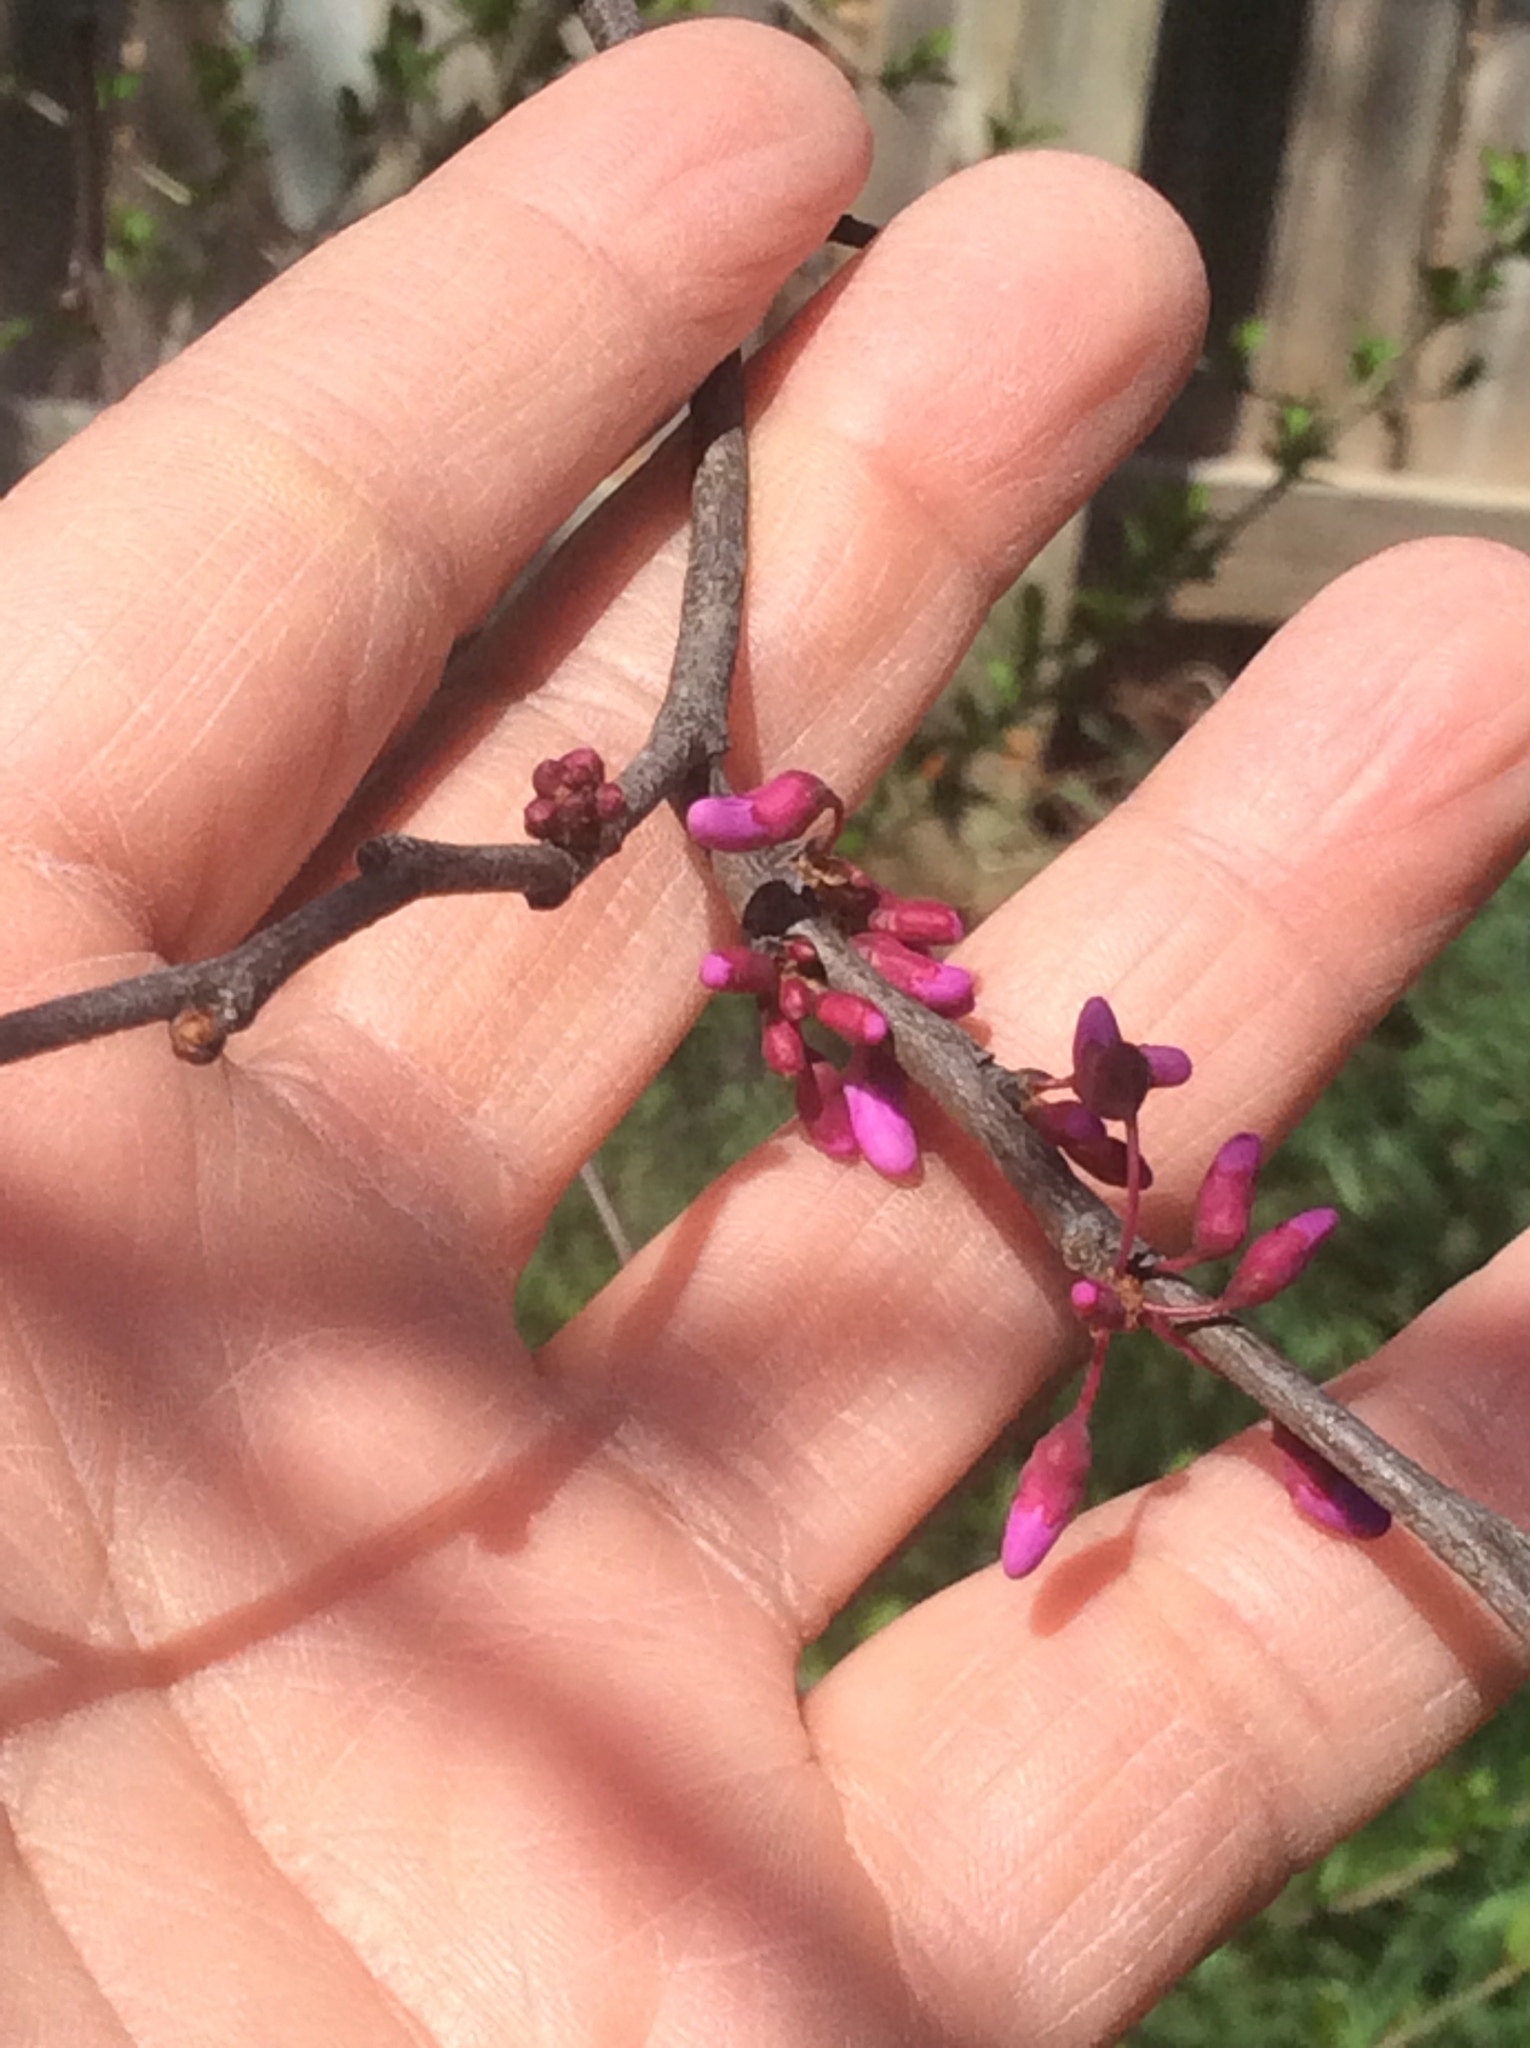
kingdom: Plantae
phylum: Tracheophyta
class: Magnoliopsida
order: Fabales
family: Fabaceae
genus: Cercis
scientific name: Cercis canadensis
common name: Eastern redbud
